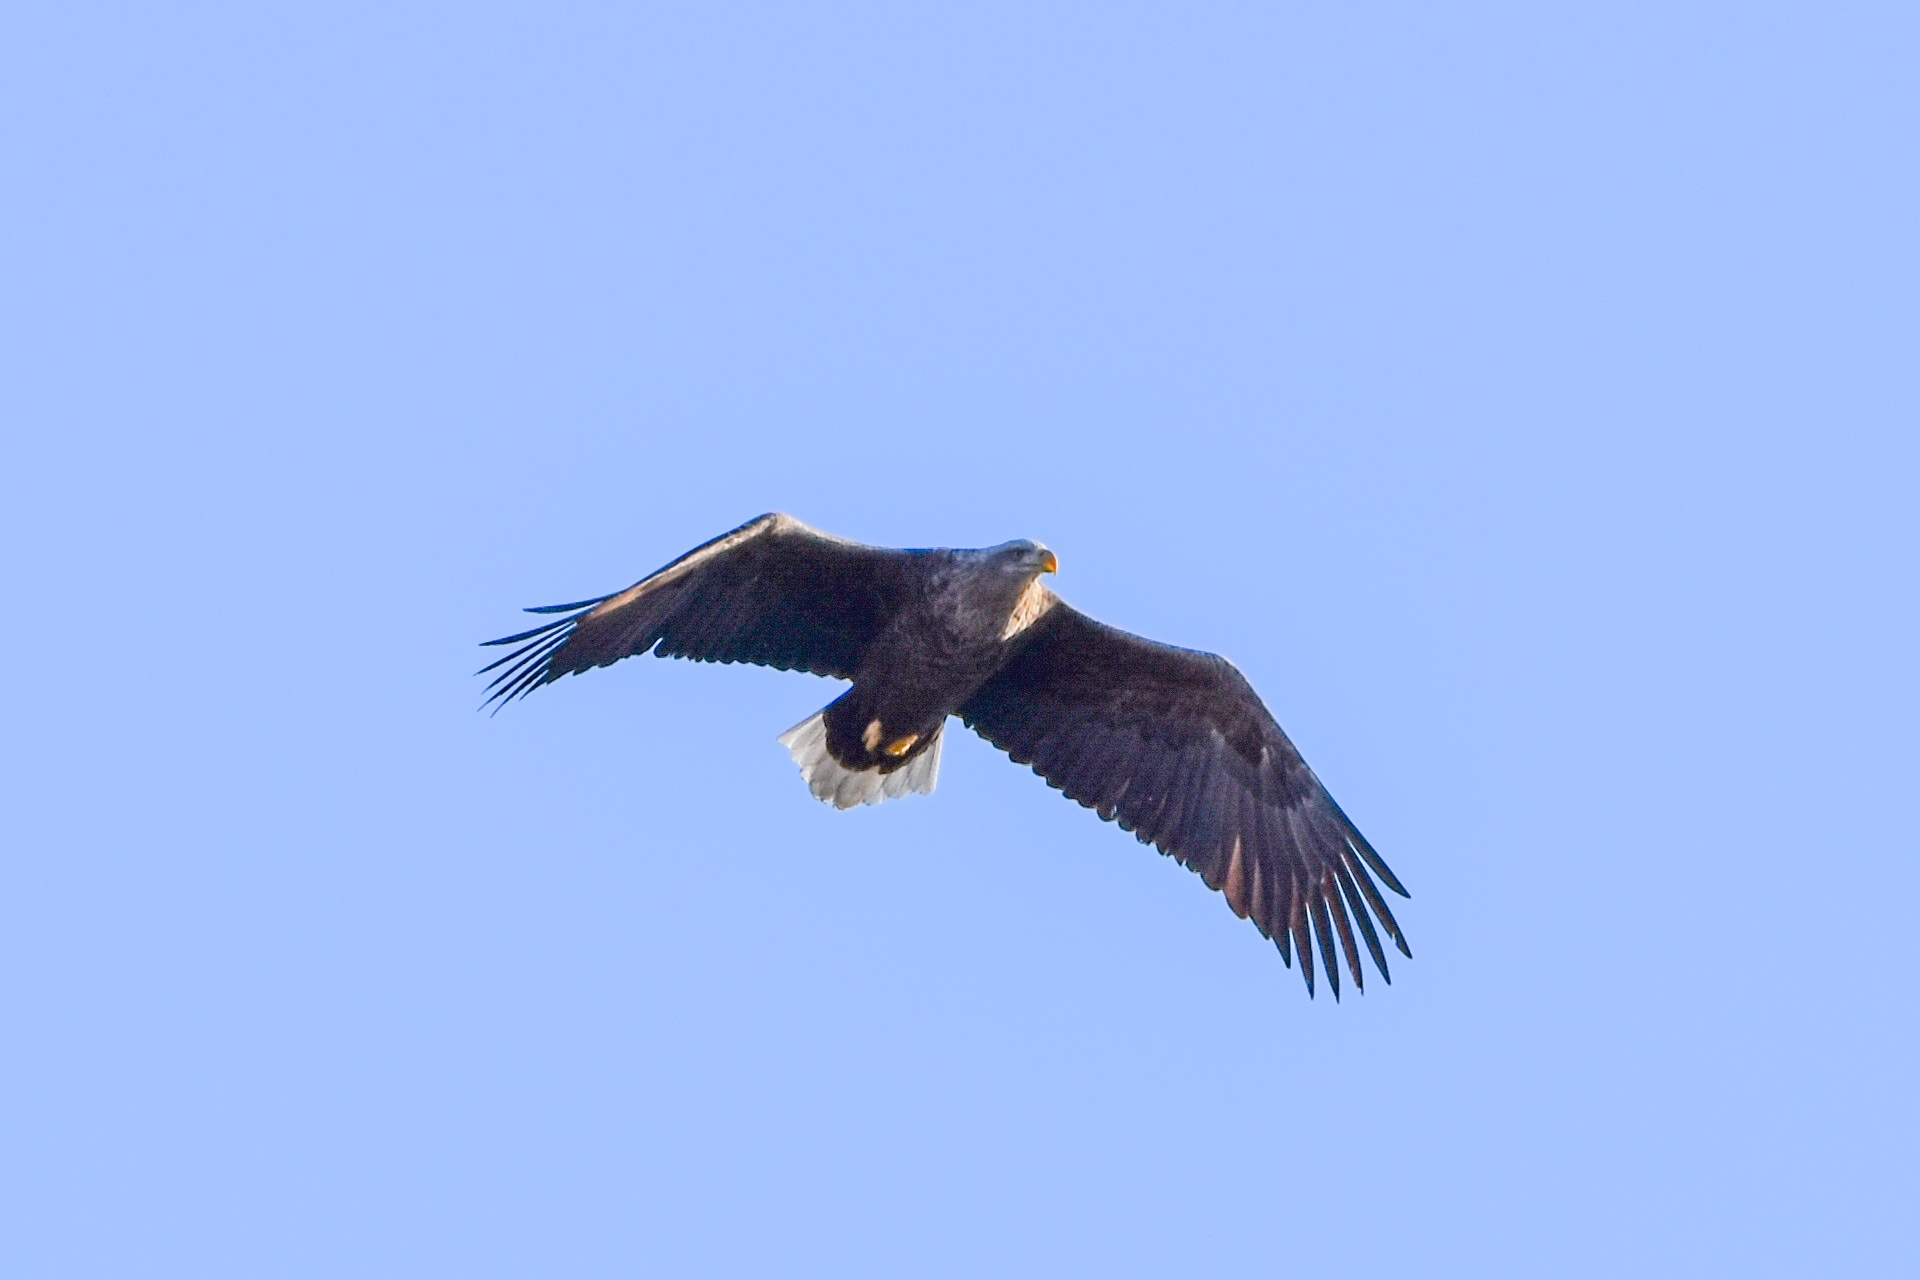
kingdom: Animalia
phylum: Chordata
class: Aves
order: Accipitriformes
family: Accipitridae
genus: Haliaeetus
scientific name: Haliaeetus albicilla
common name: White-tailed eagle
